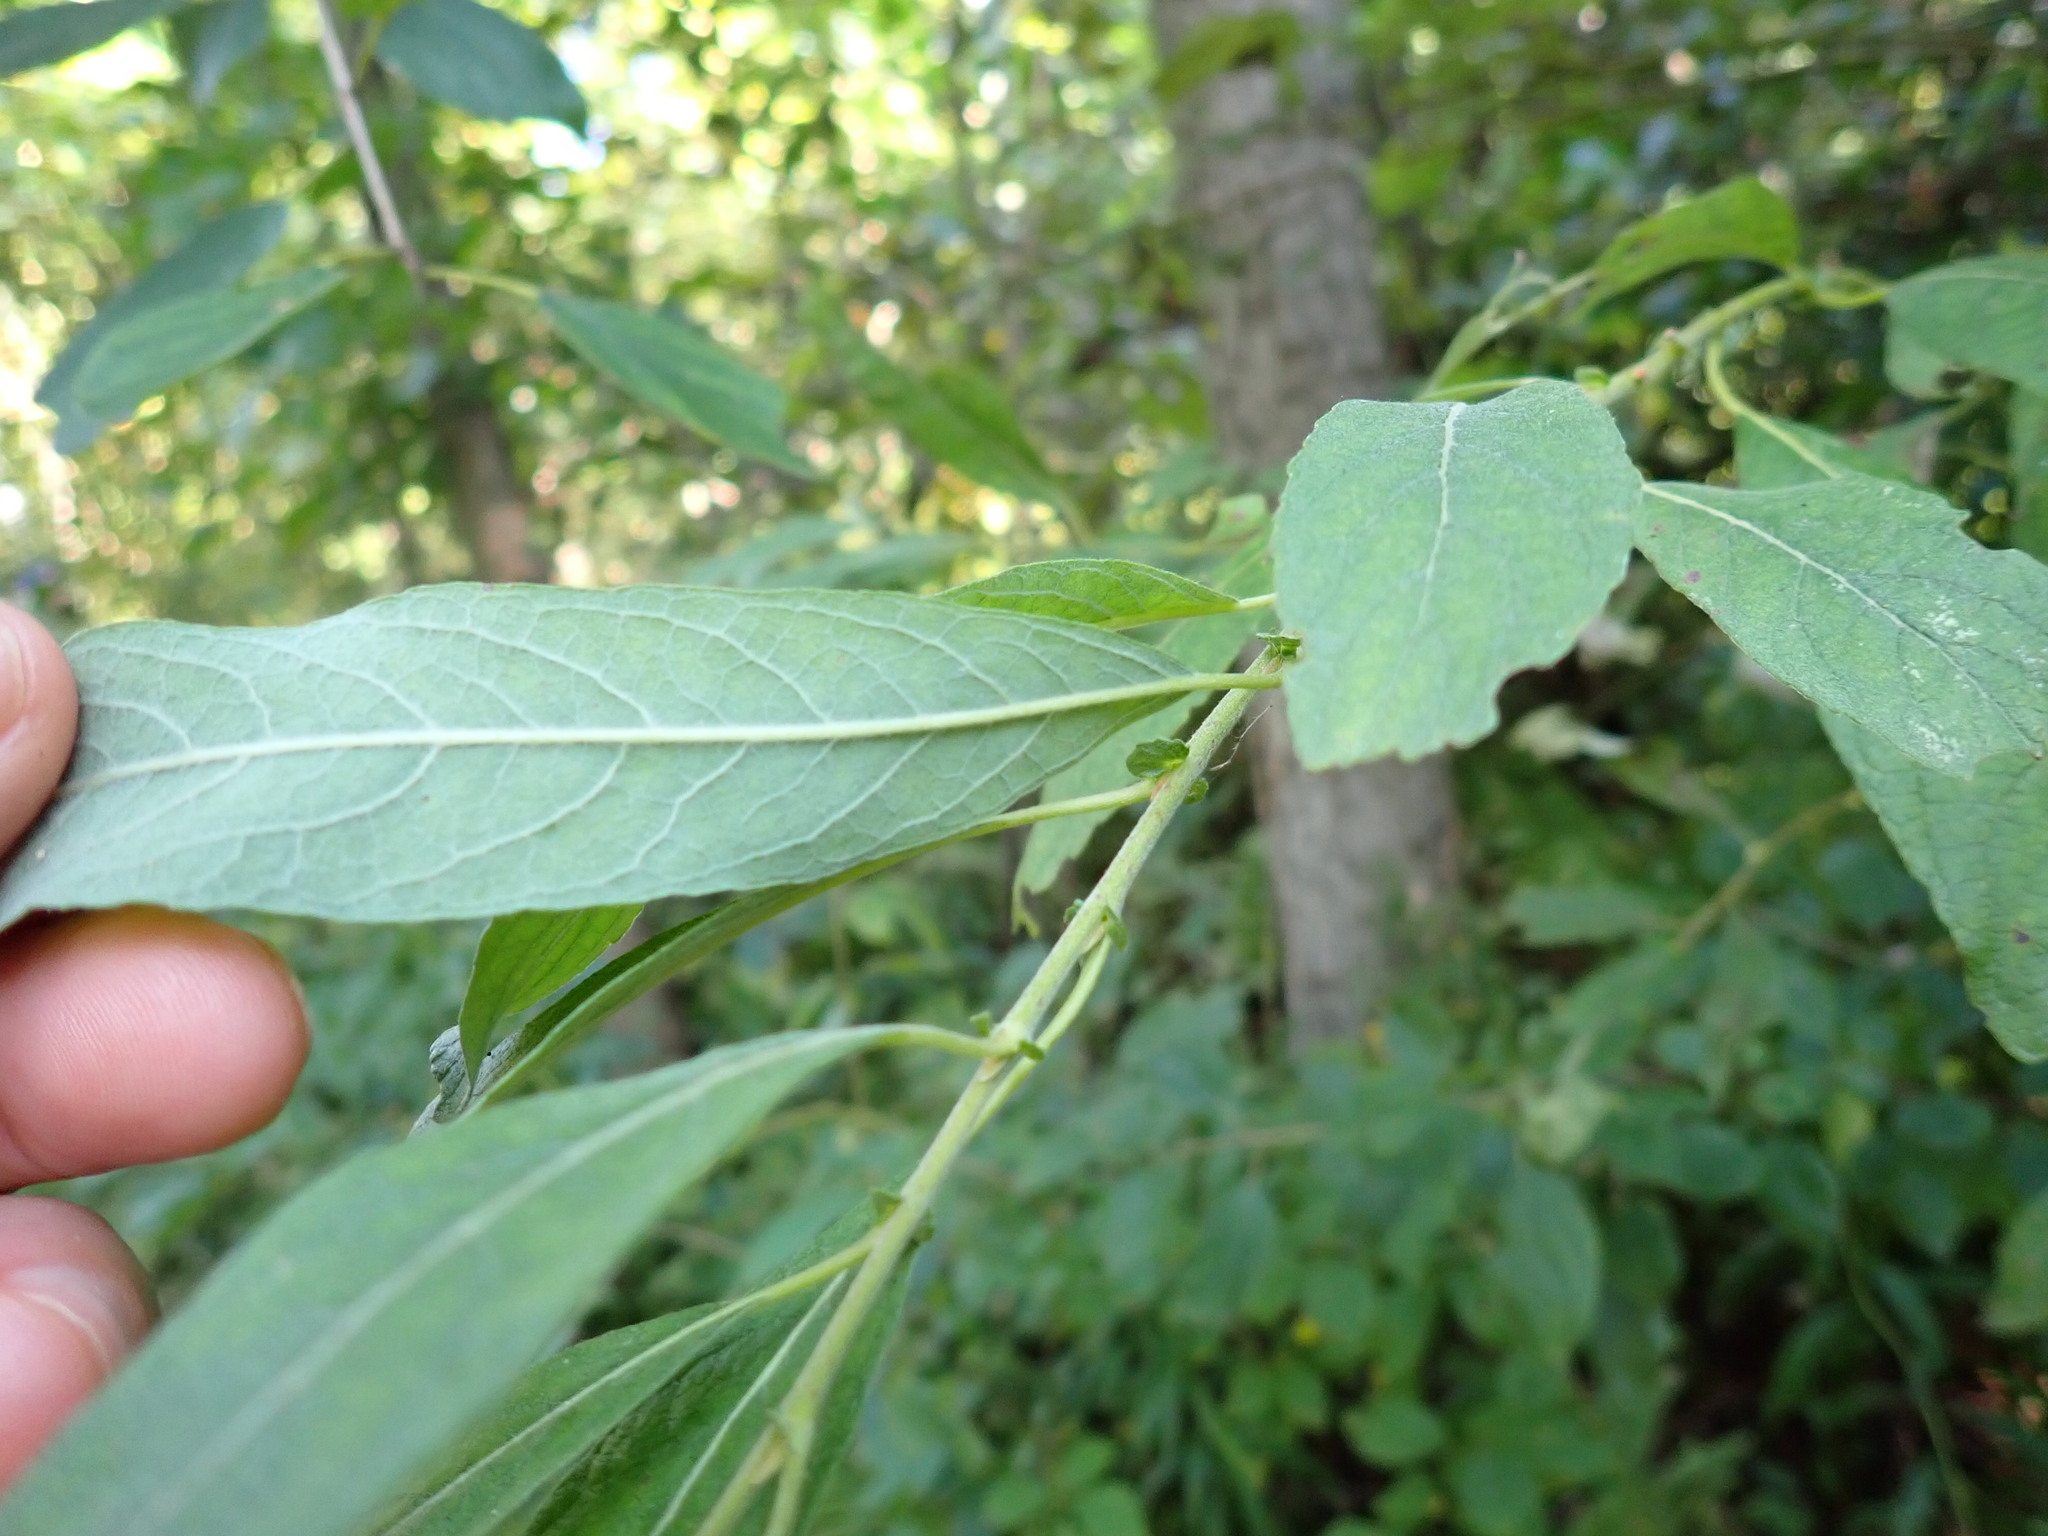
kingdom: Plantae
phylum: Tracheophyta
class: Magnoliopsida
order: Malpighiales
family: Salicaceae
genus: Salix
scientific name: Salix humilis
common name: Prairie willow
